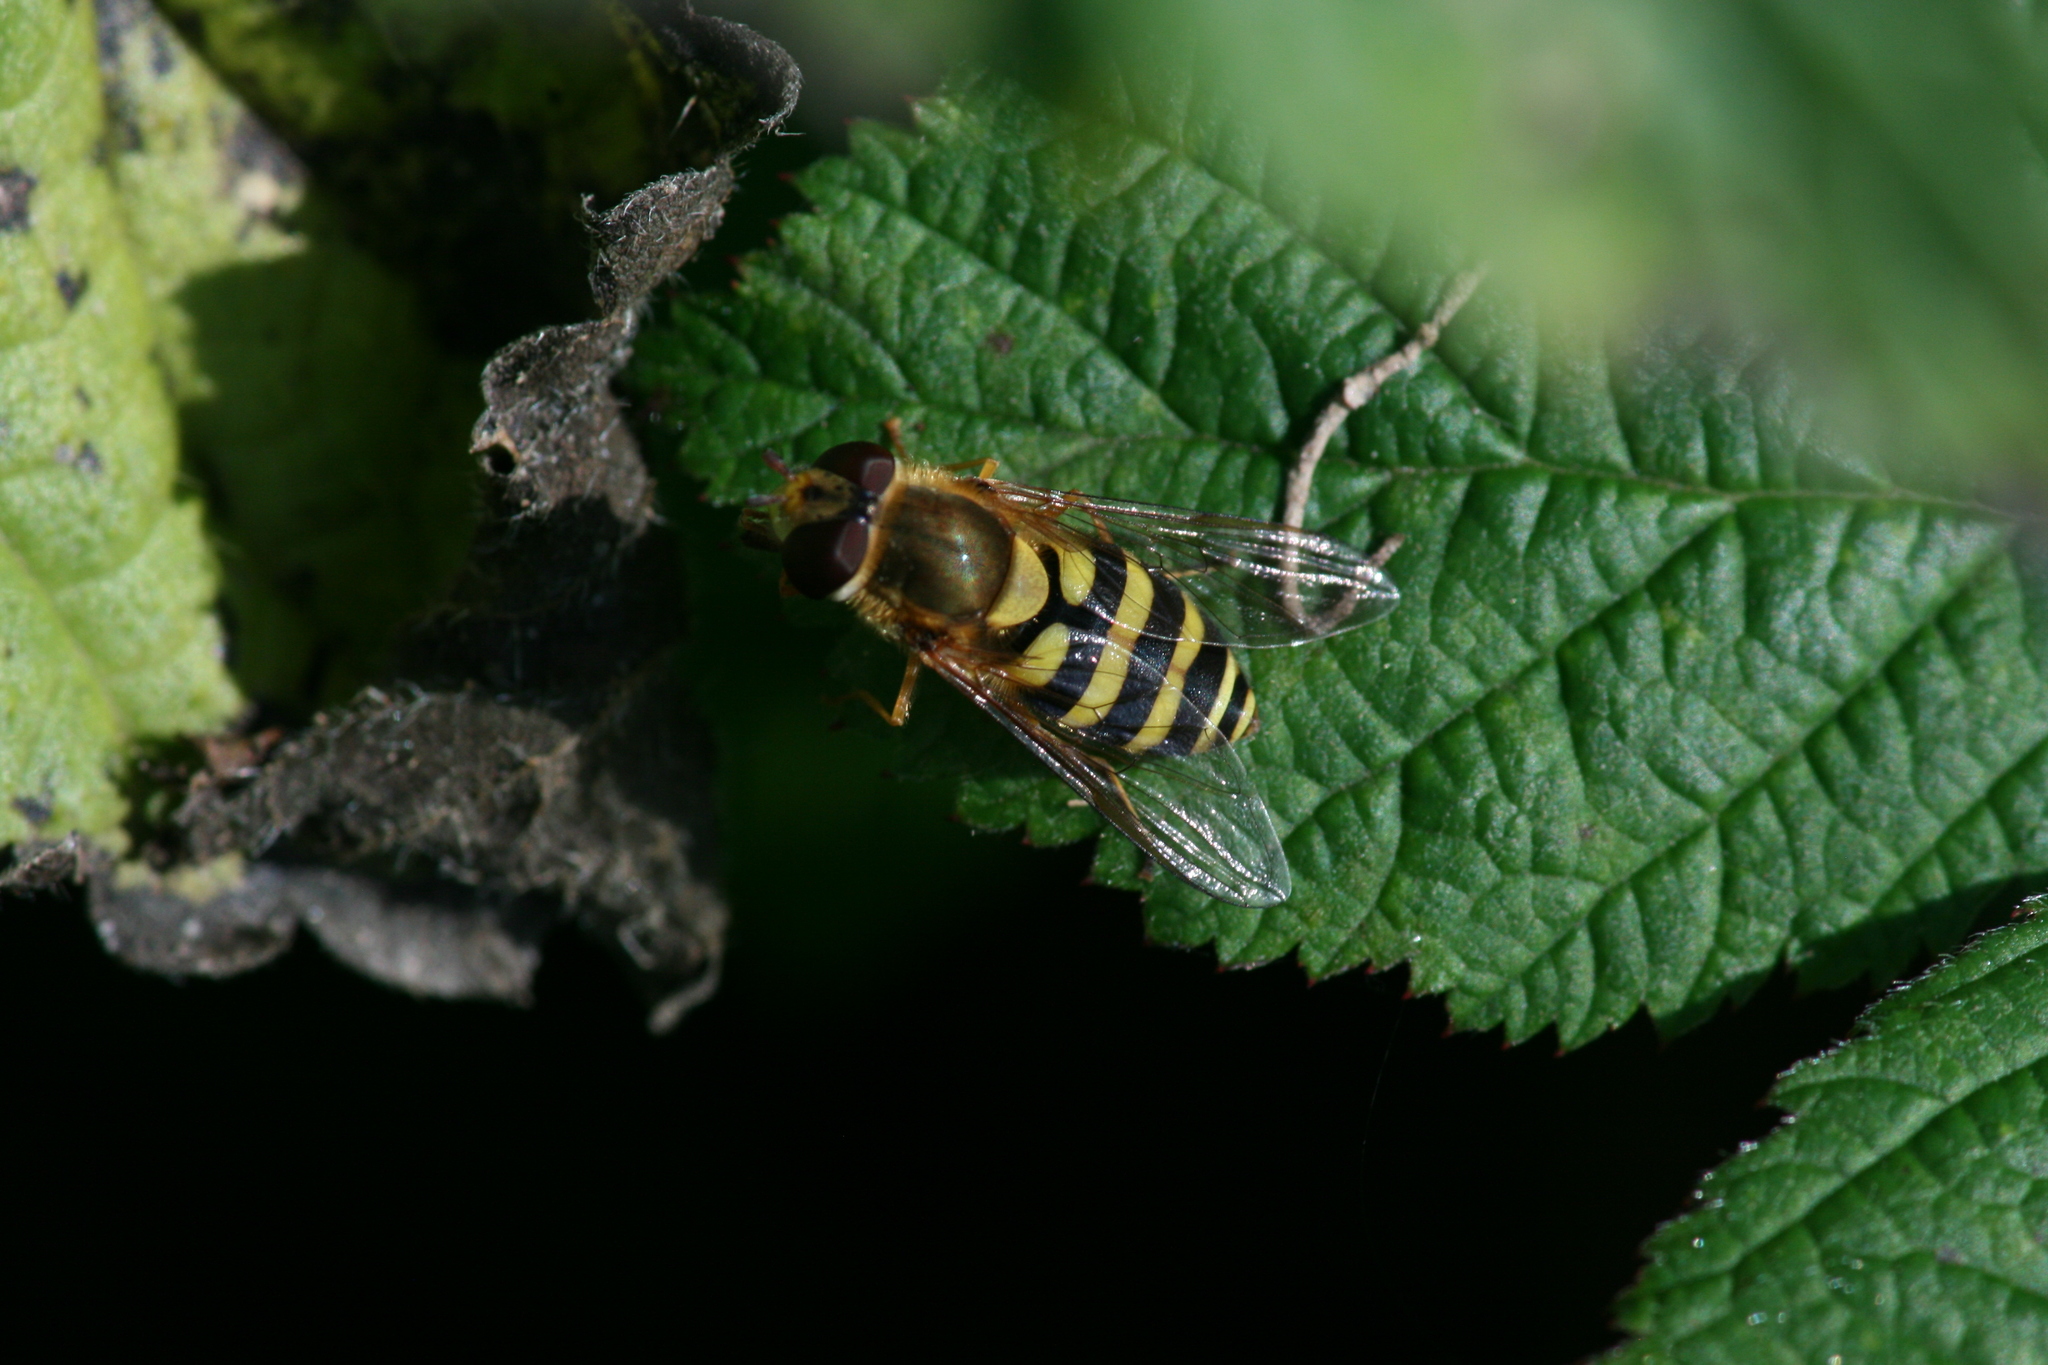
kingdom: Animalia
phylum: Arthropoda
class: Insecta
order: Diptera
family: Syrphidae
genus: Syrphus
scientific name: Syrphus
